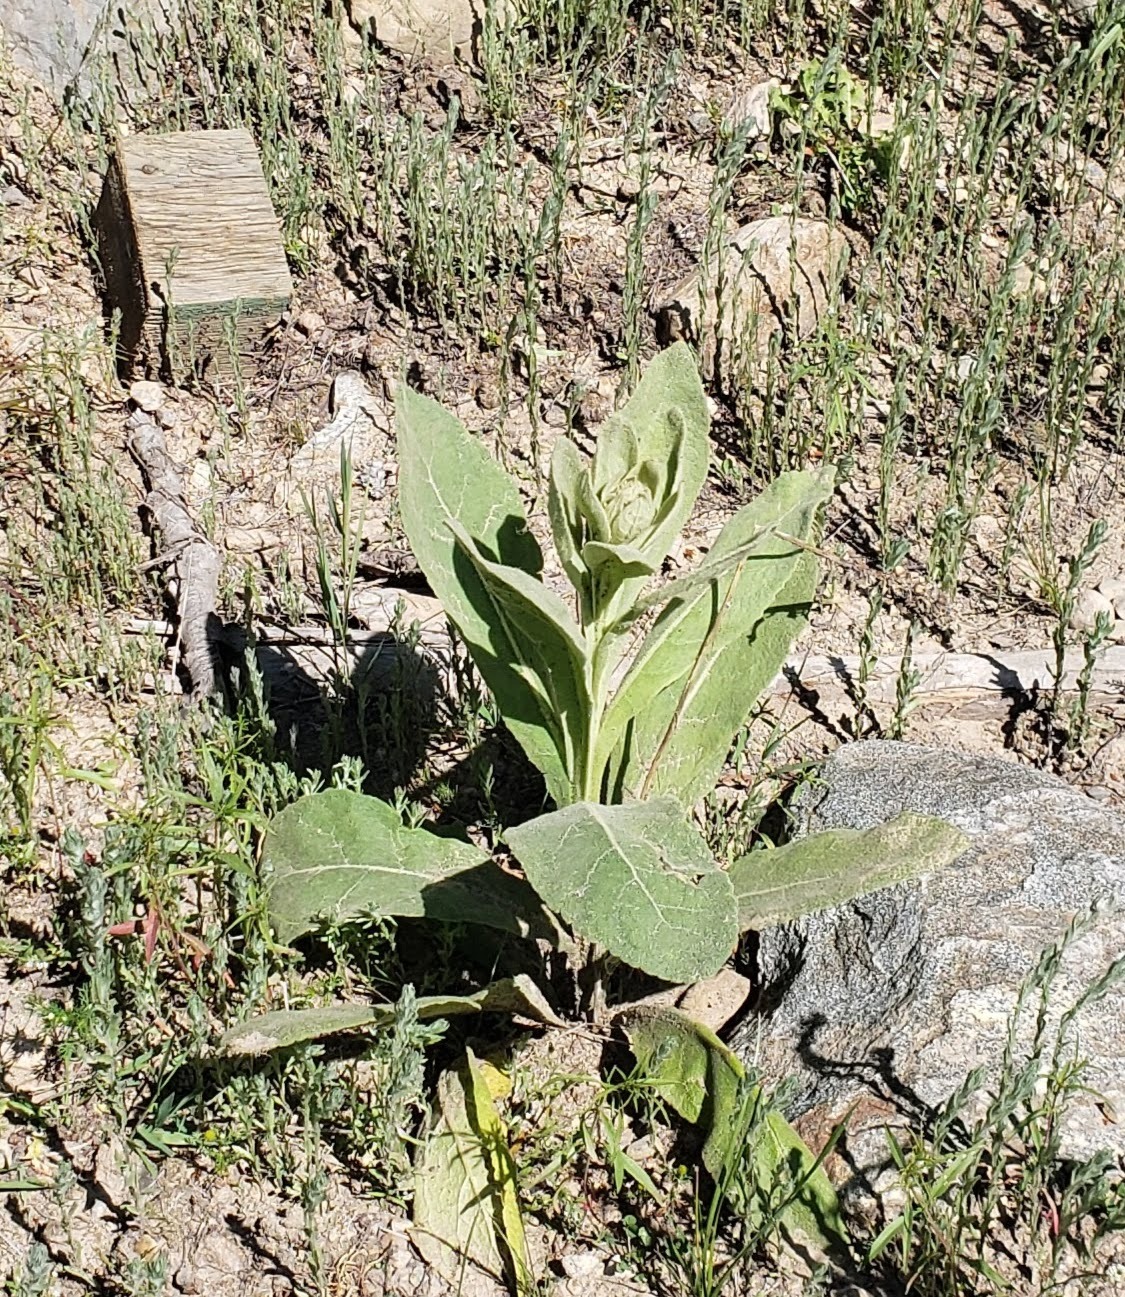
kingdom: Plantae
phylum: Tracheophyta
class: Magnoliopsida
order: Lamiales
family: Scrophulariaceae
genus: Verbascum
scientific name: Verbascum thapsus
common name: Common mullein
